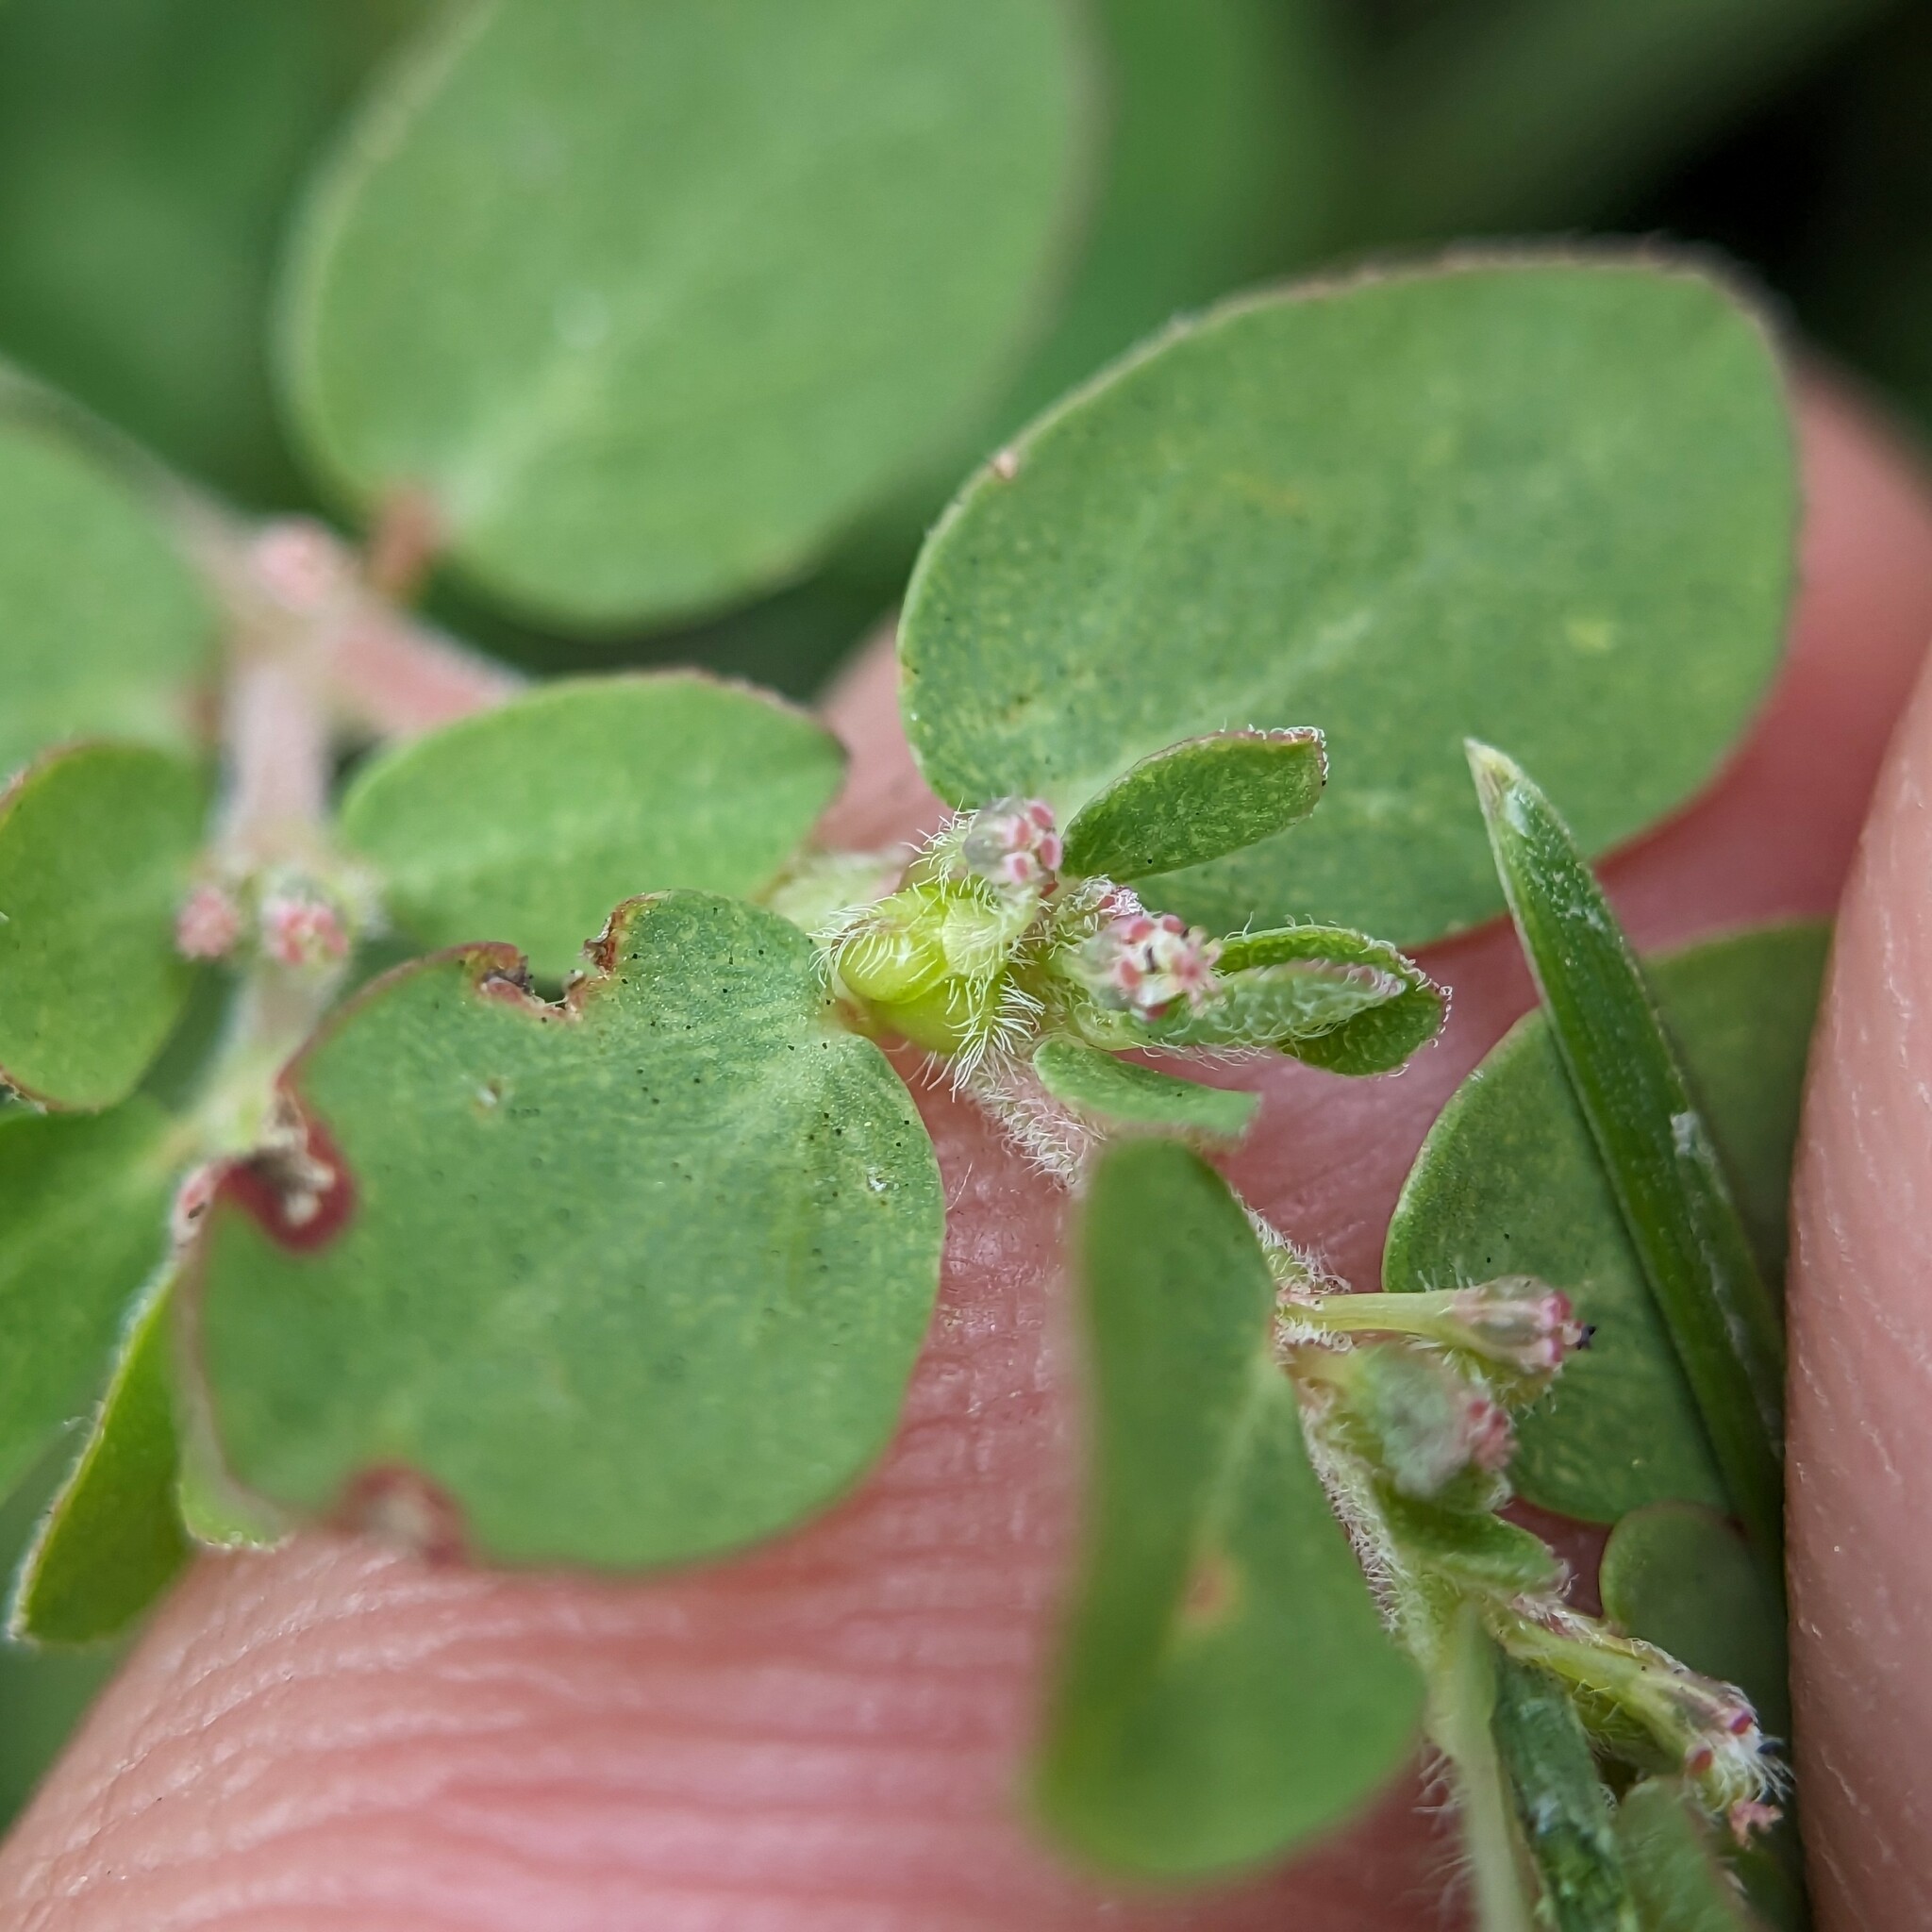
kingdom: Plantae
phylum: Tracheophyta
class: Magnoliopsida
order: Malpighiales
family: Euphorbiaceae
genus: Euphorbia
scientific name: Euphorbia prostrata
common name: Prostrate sandmat
